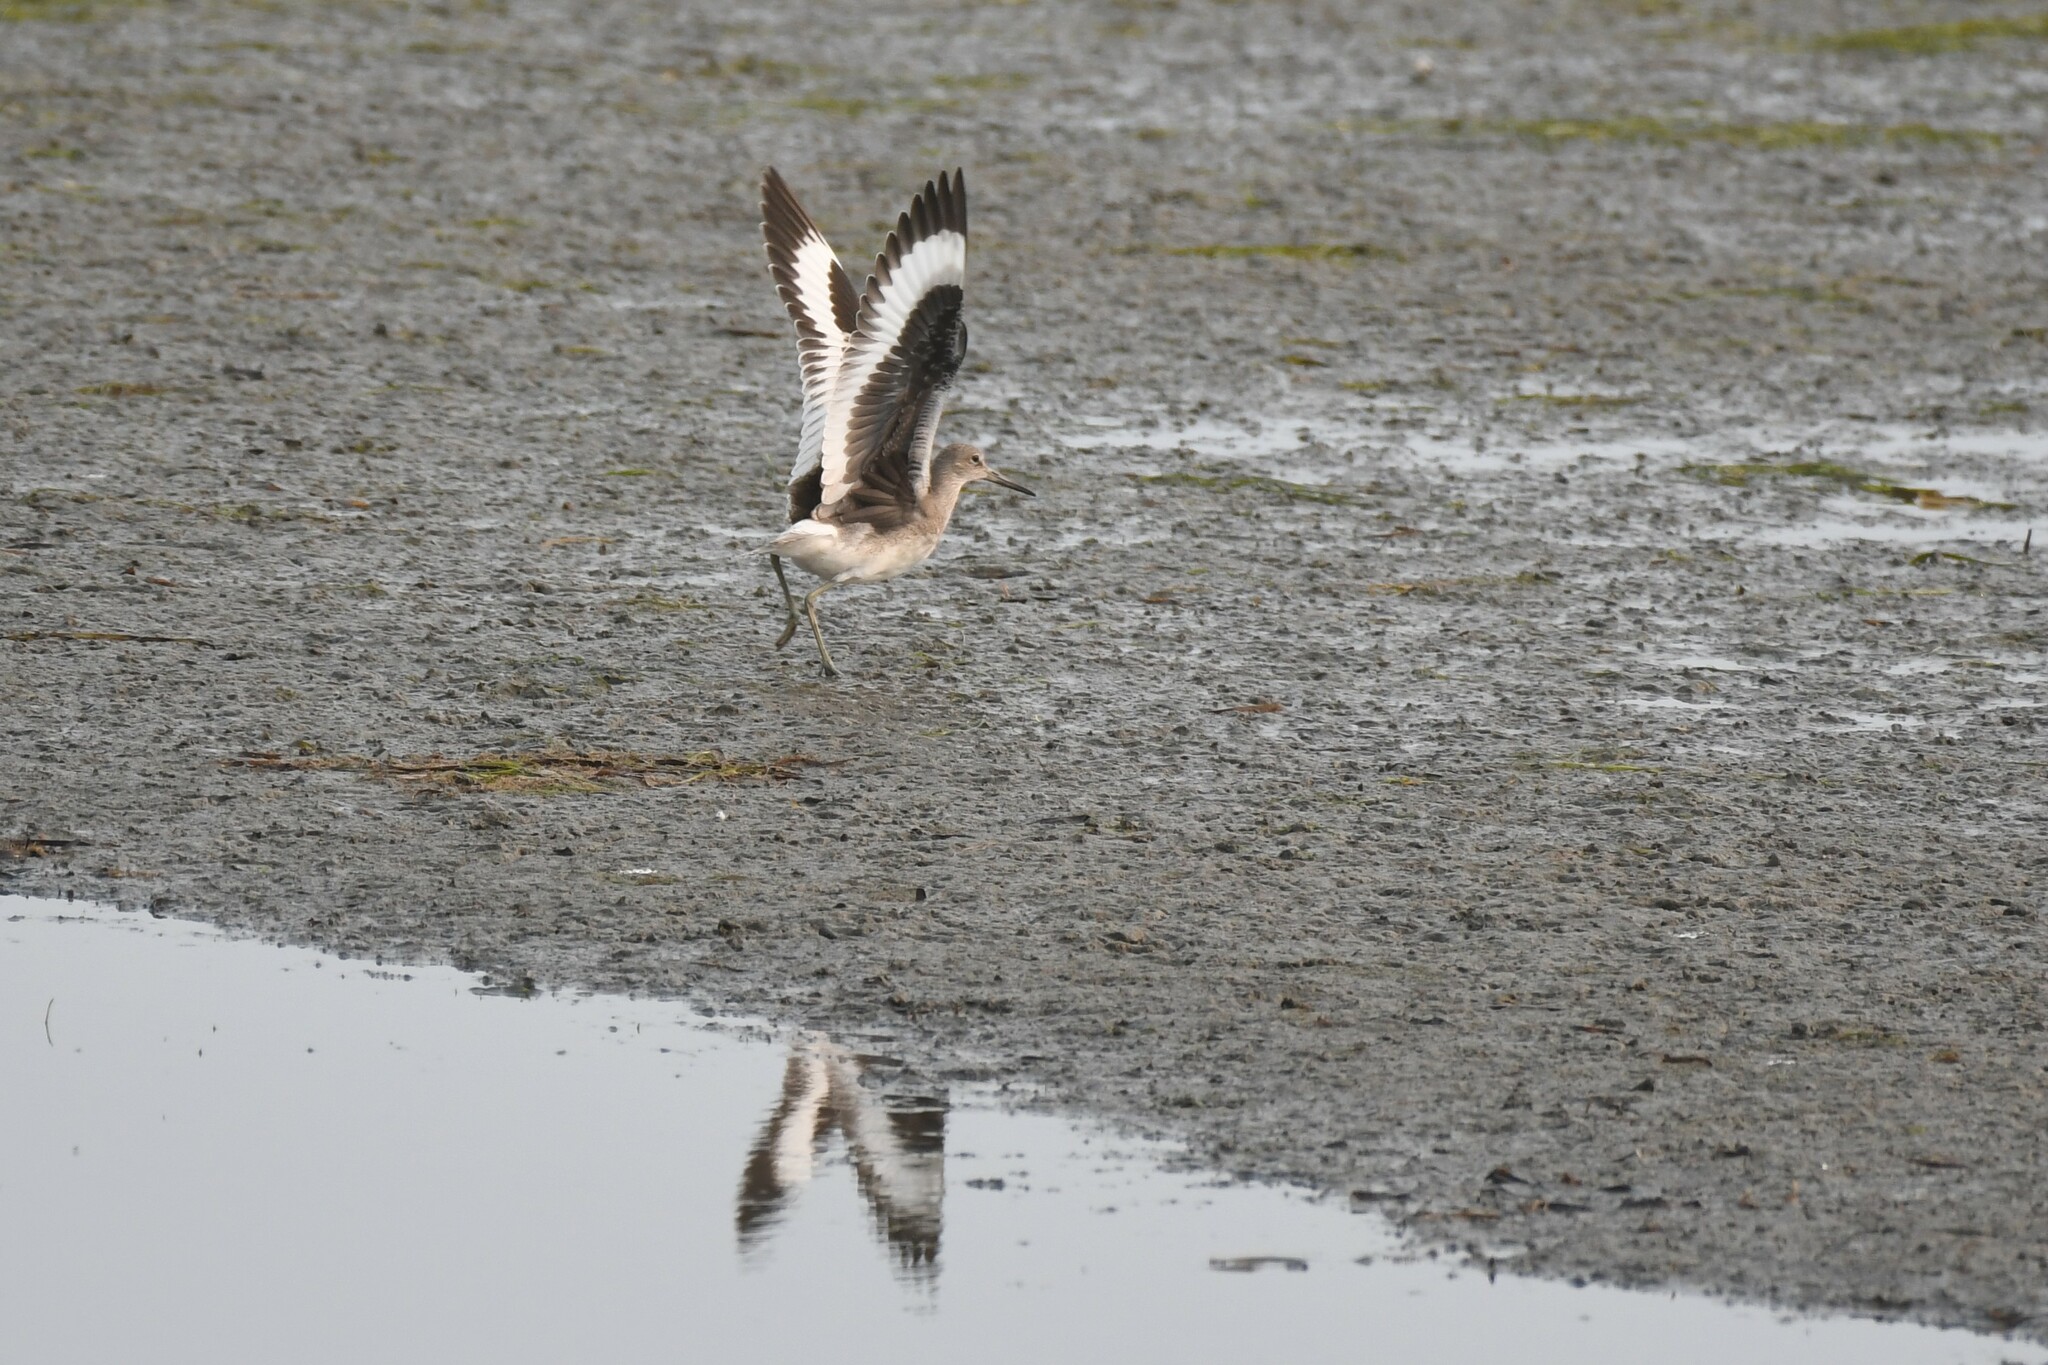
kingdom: Animalia
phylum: Chordata
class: Aves
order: Charadriiformes
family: Scolopacidae
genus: Tringa
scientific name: Tringa semipalmata
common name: Willet
